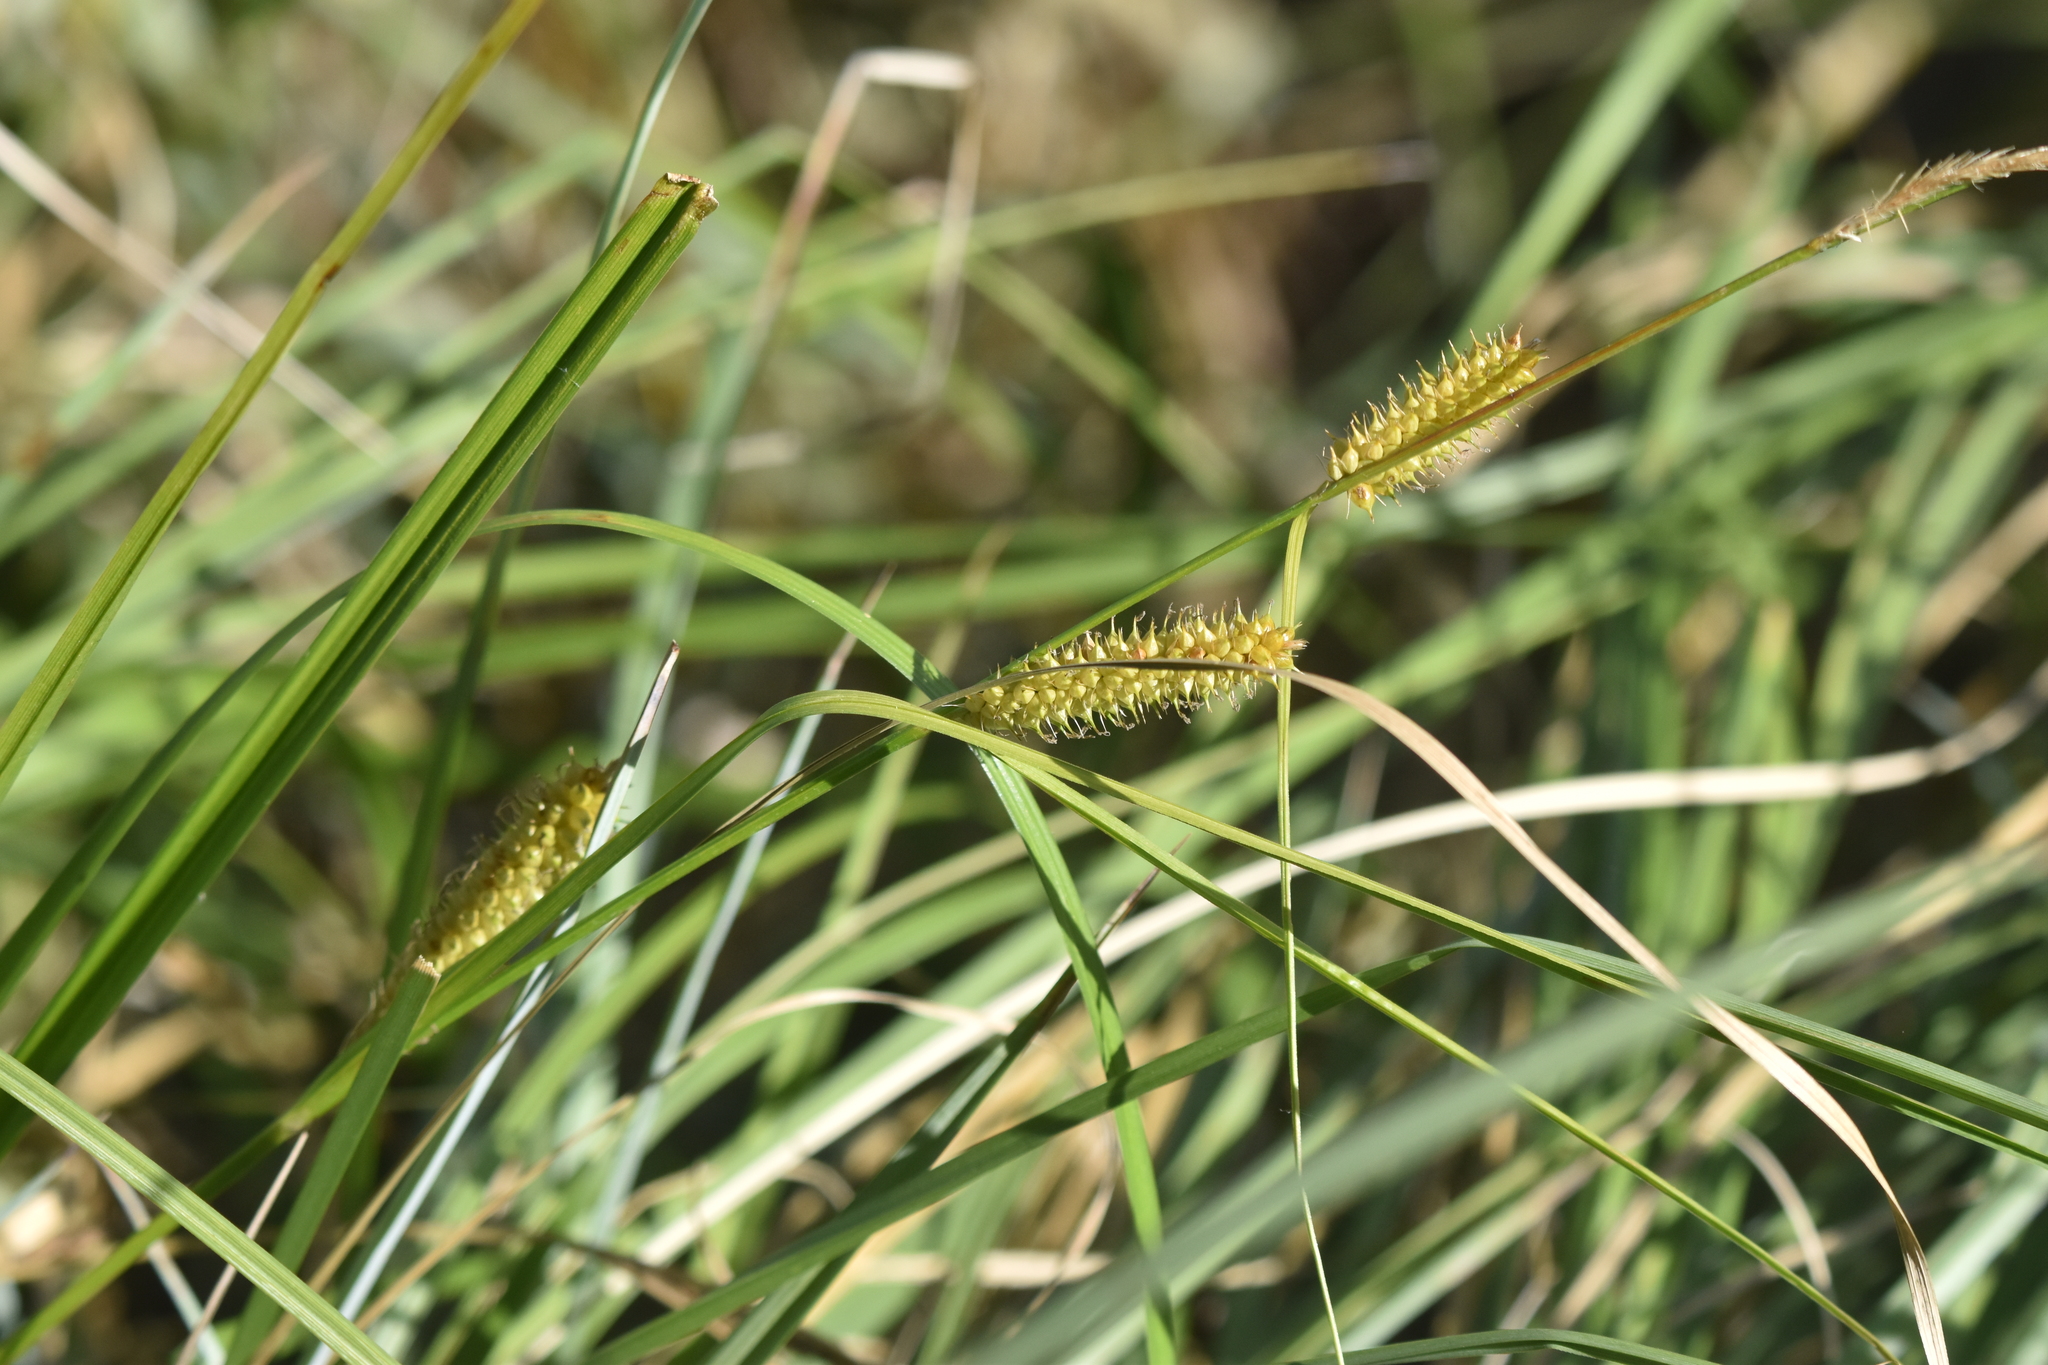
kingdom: Plantae
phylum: Tracheophyta
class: Liliopsida
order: Poales
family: Cyperaceae
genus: Carex
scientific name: Carex utriculata
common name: Beaked sedge
